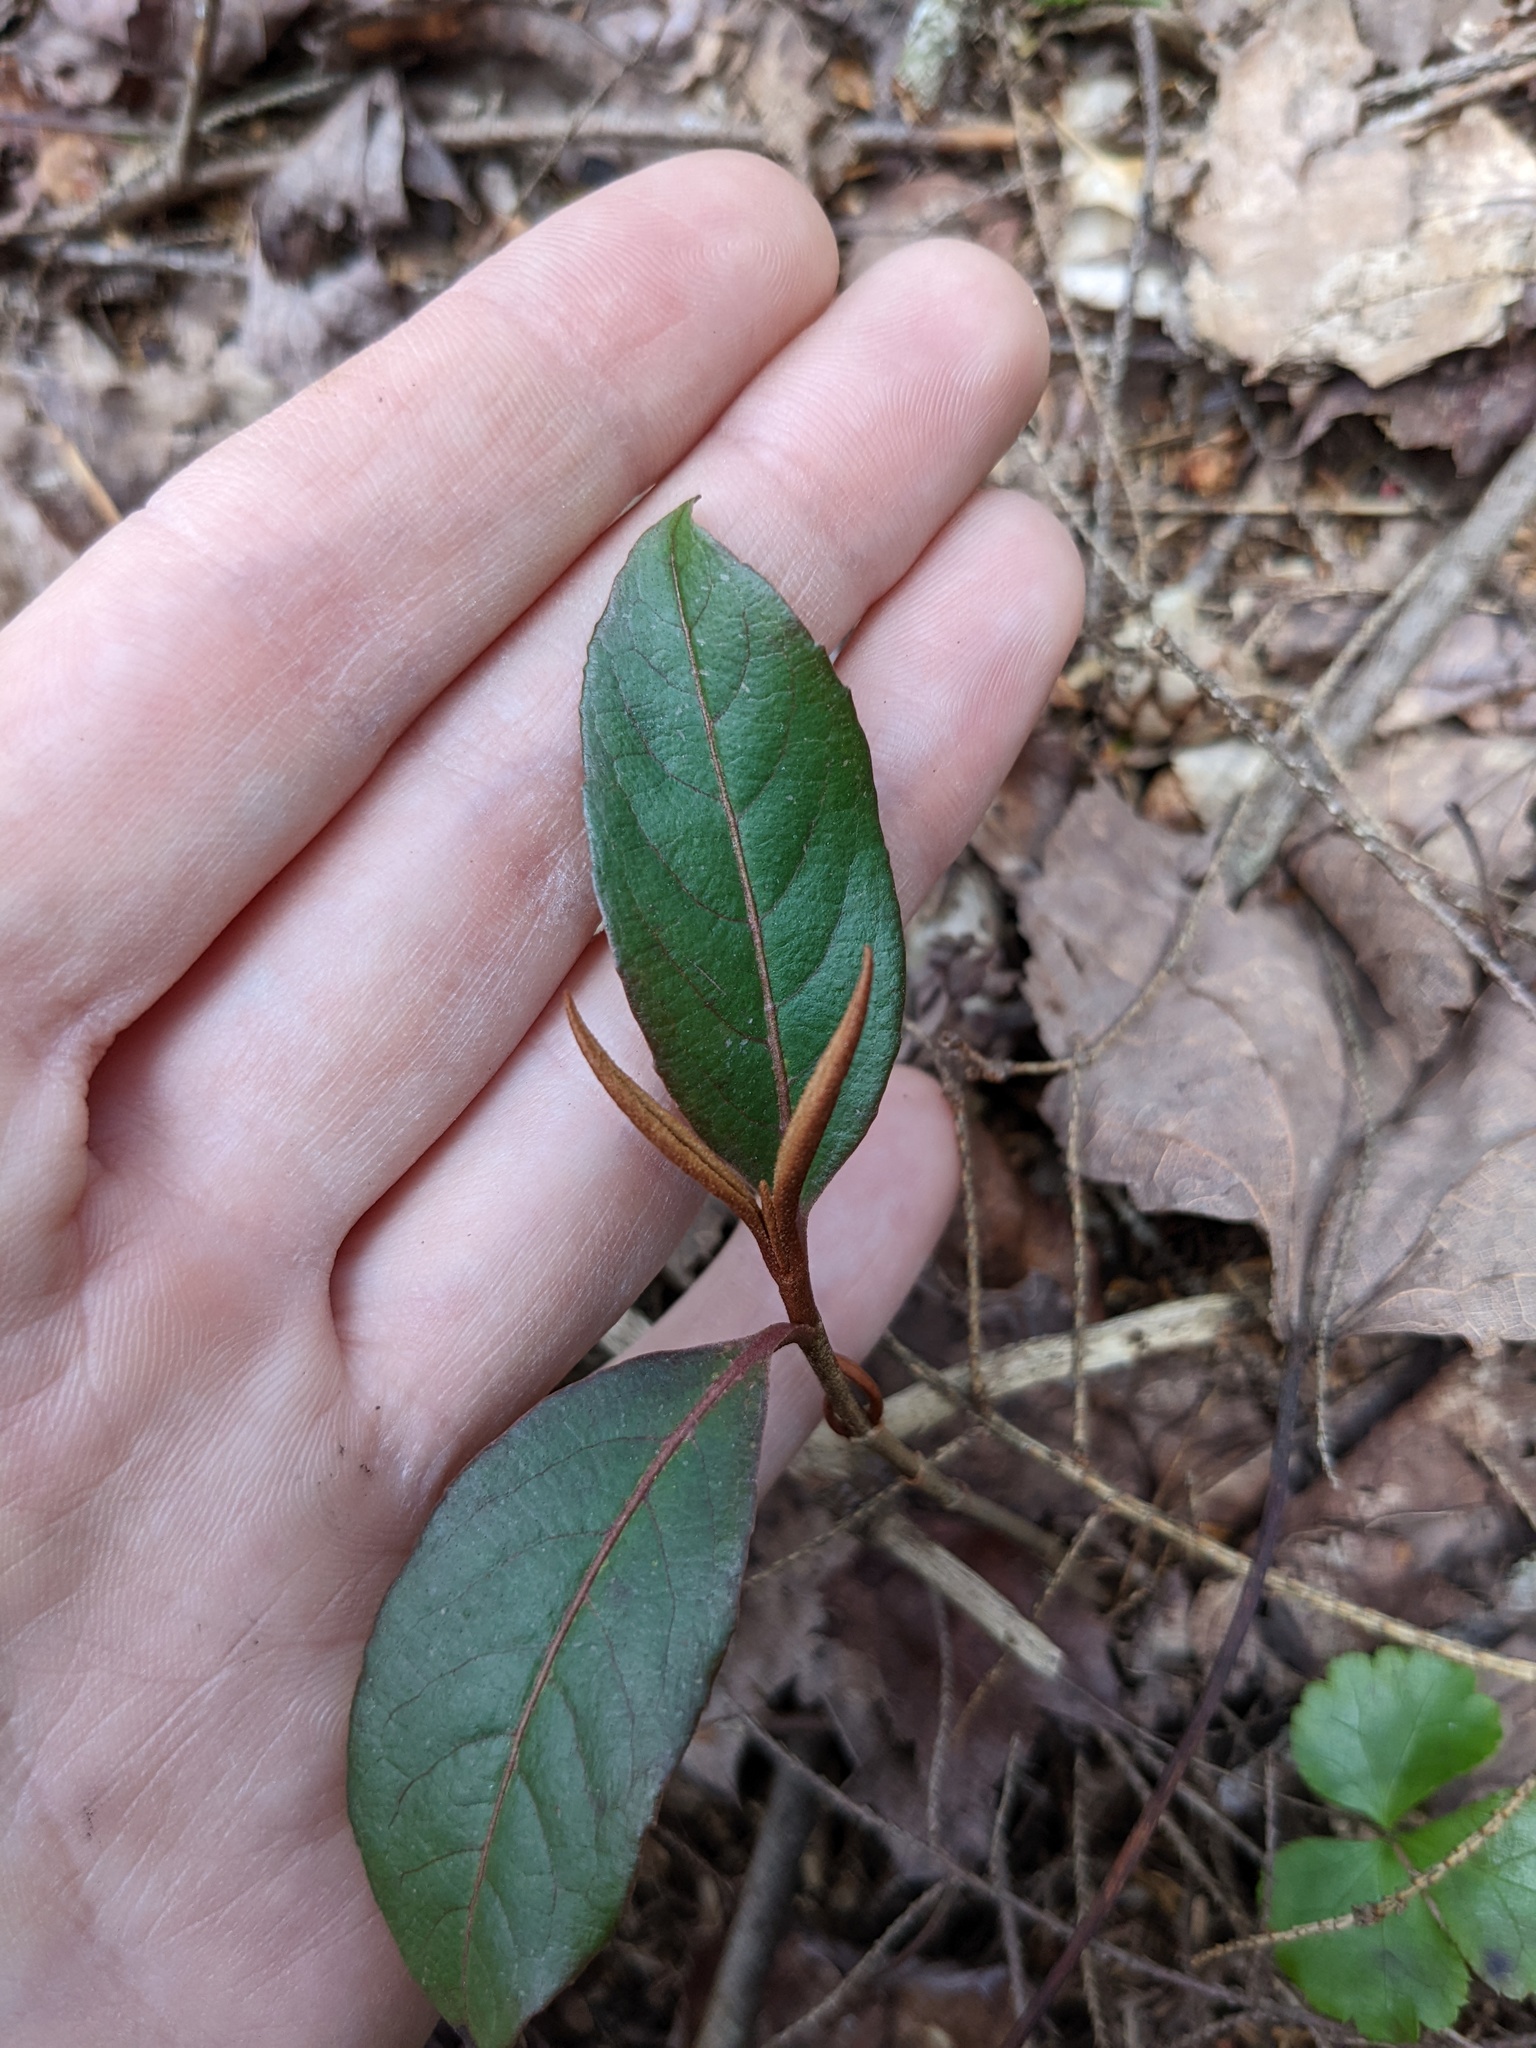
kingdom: Plantae
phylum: Tracheophyta
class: Magnoliopsida
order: Dipsacales
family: Viburnaceae
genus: Viburnum
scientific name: Viburnum cassinoides
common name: Swamp haw
